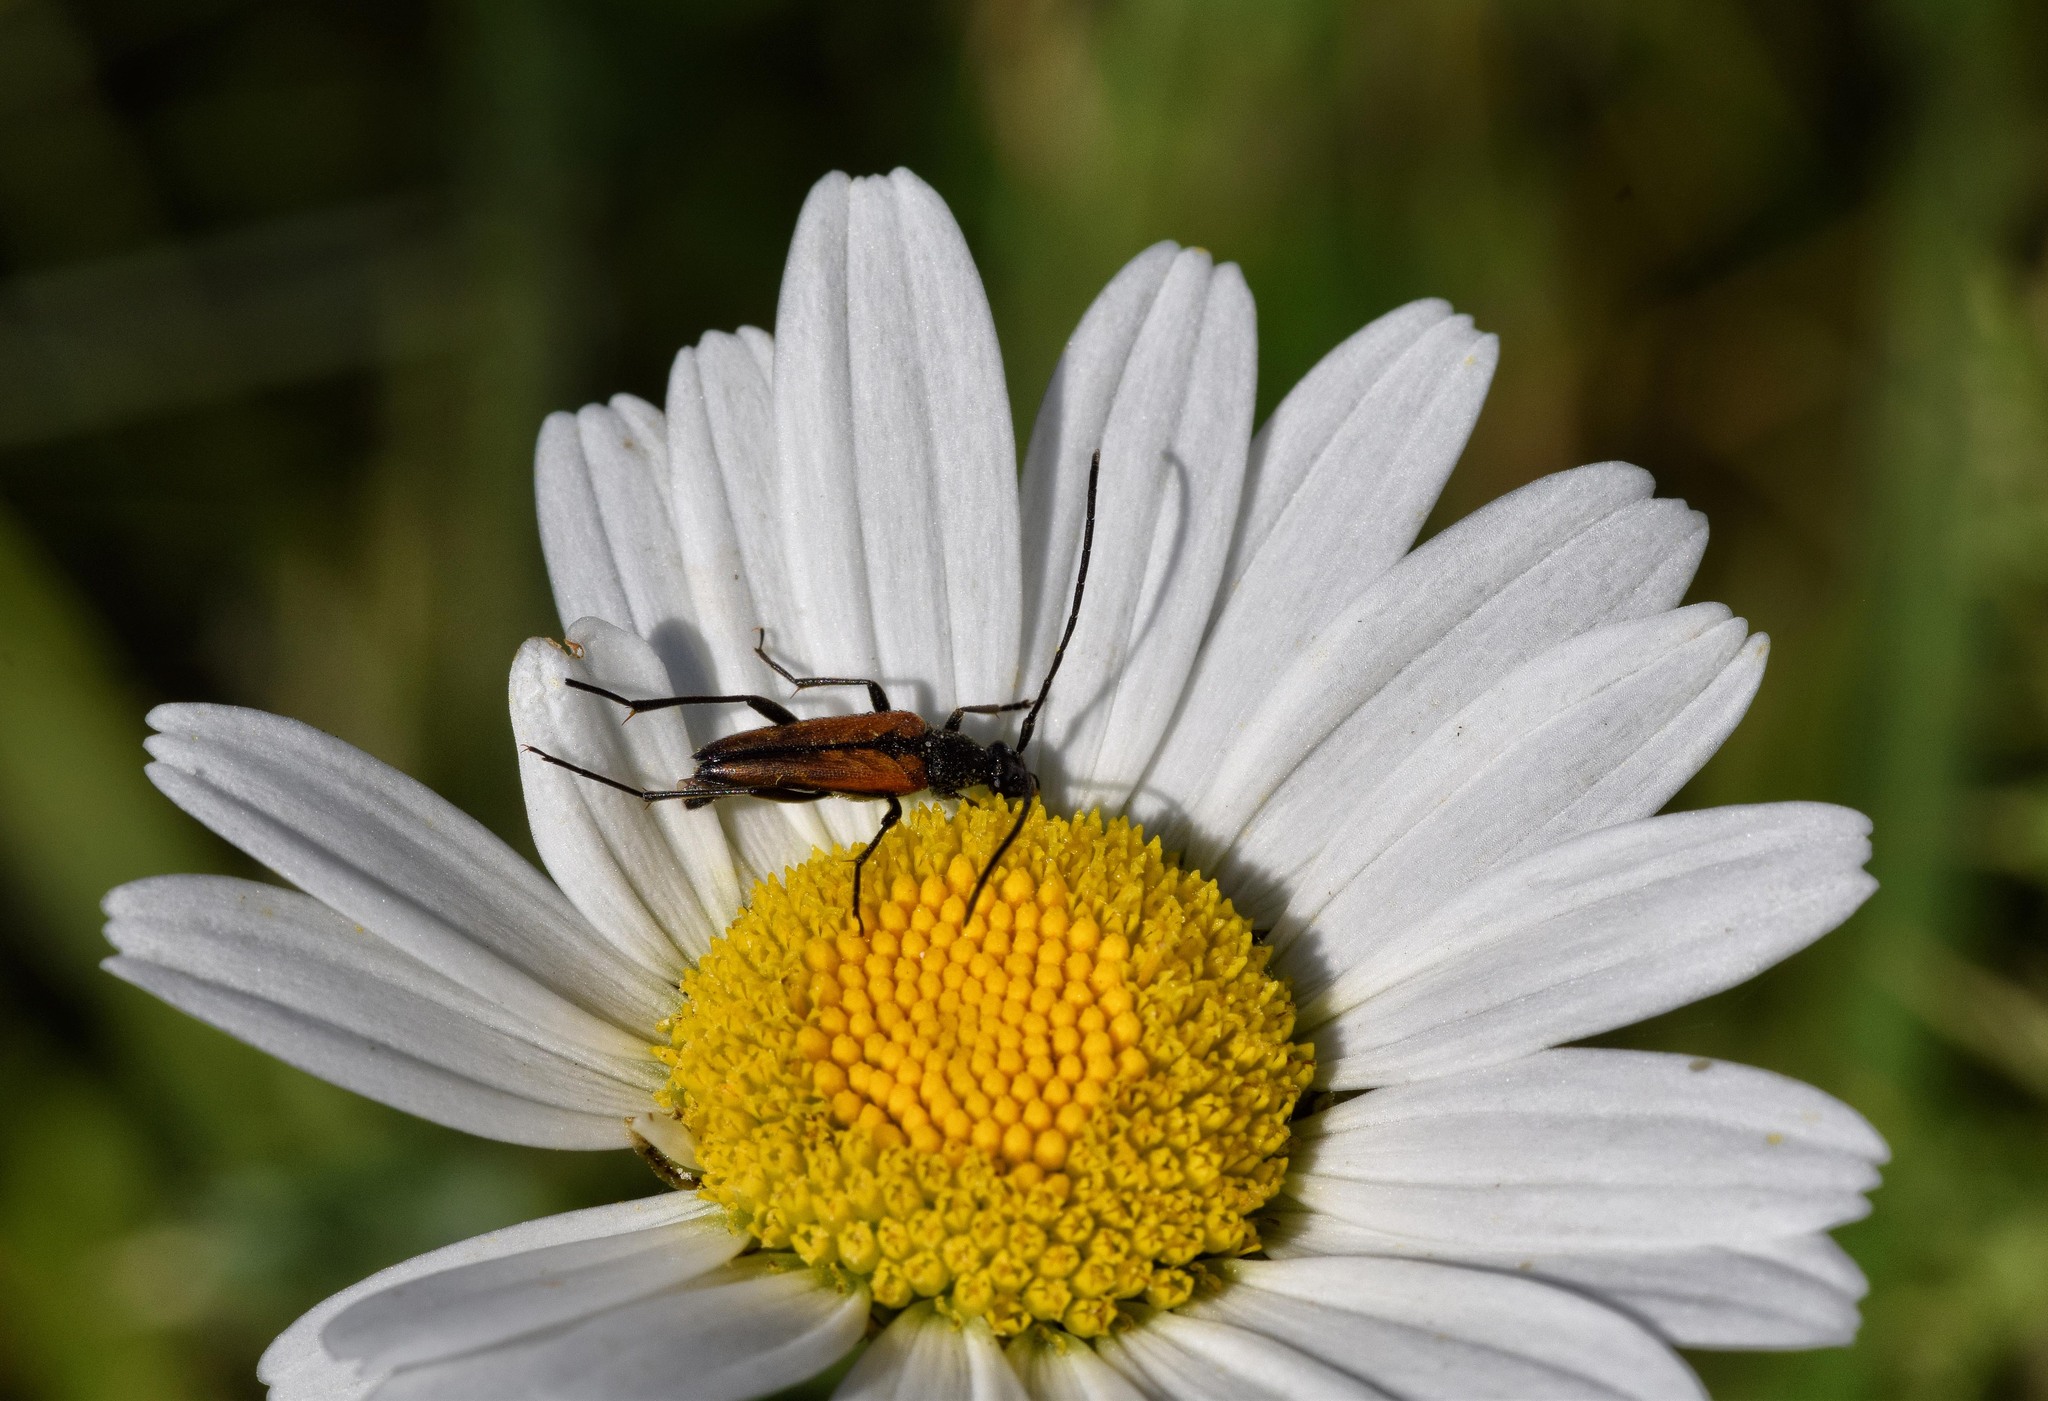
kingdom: Animalia
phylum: Arthropoda
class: Insecta
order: Coleoptera
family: Cerambycidae
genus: Stenurella
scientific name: Stenurella melanura
